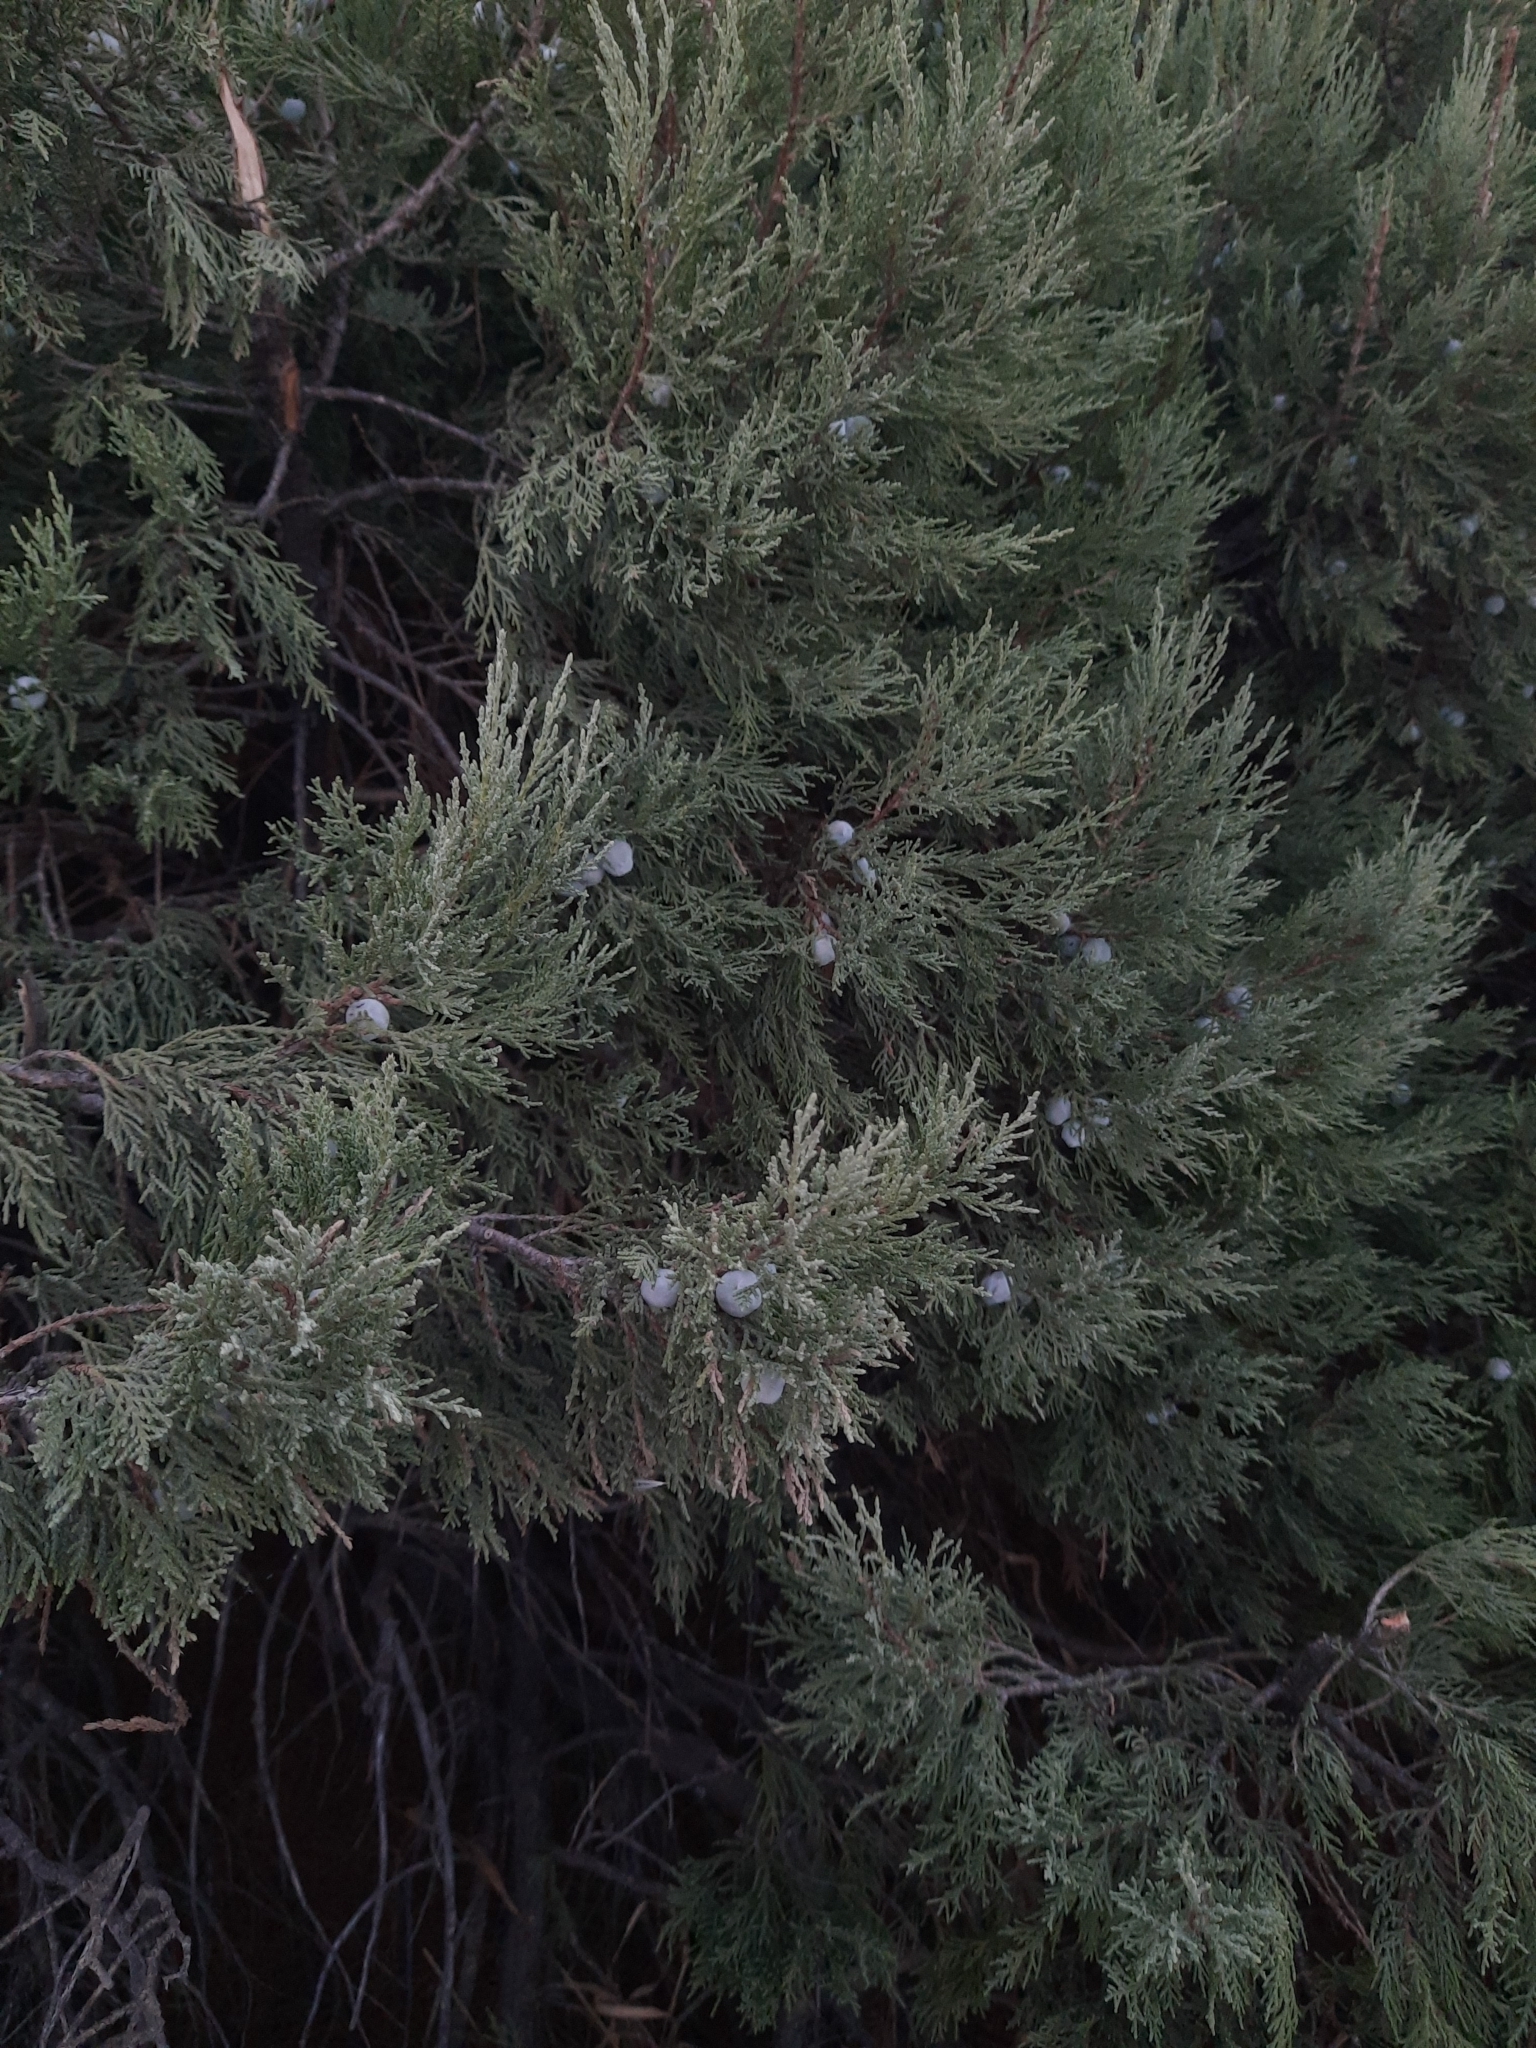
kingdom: Plantae
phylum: Tracheophyta
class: Pinopsida
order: Pinales
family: Cupressaceae
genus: Juniperus
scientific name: Juniperus excelsa
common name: Crimean juniper
